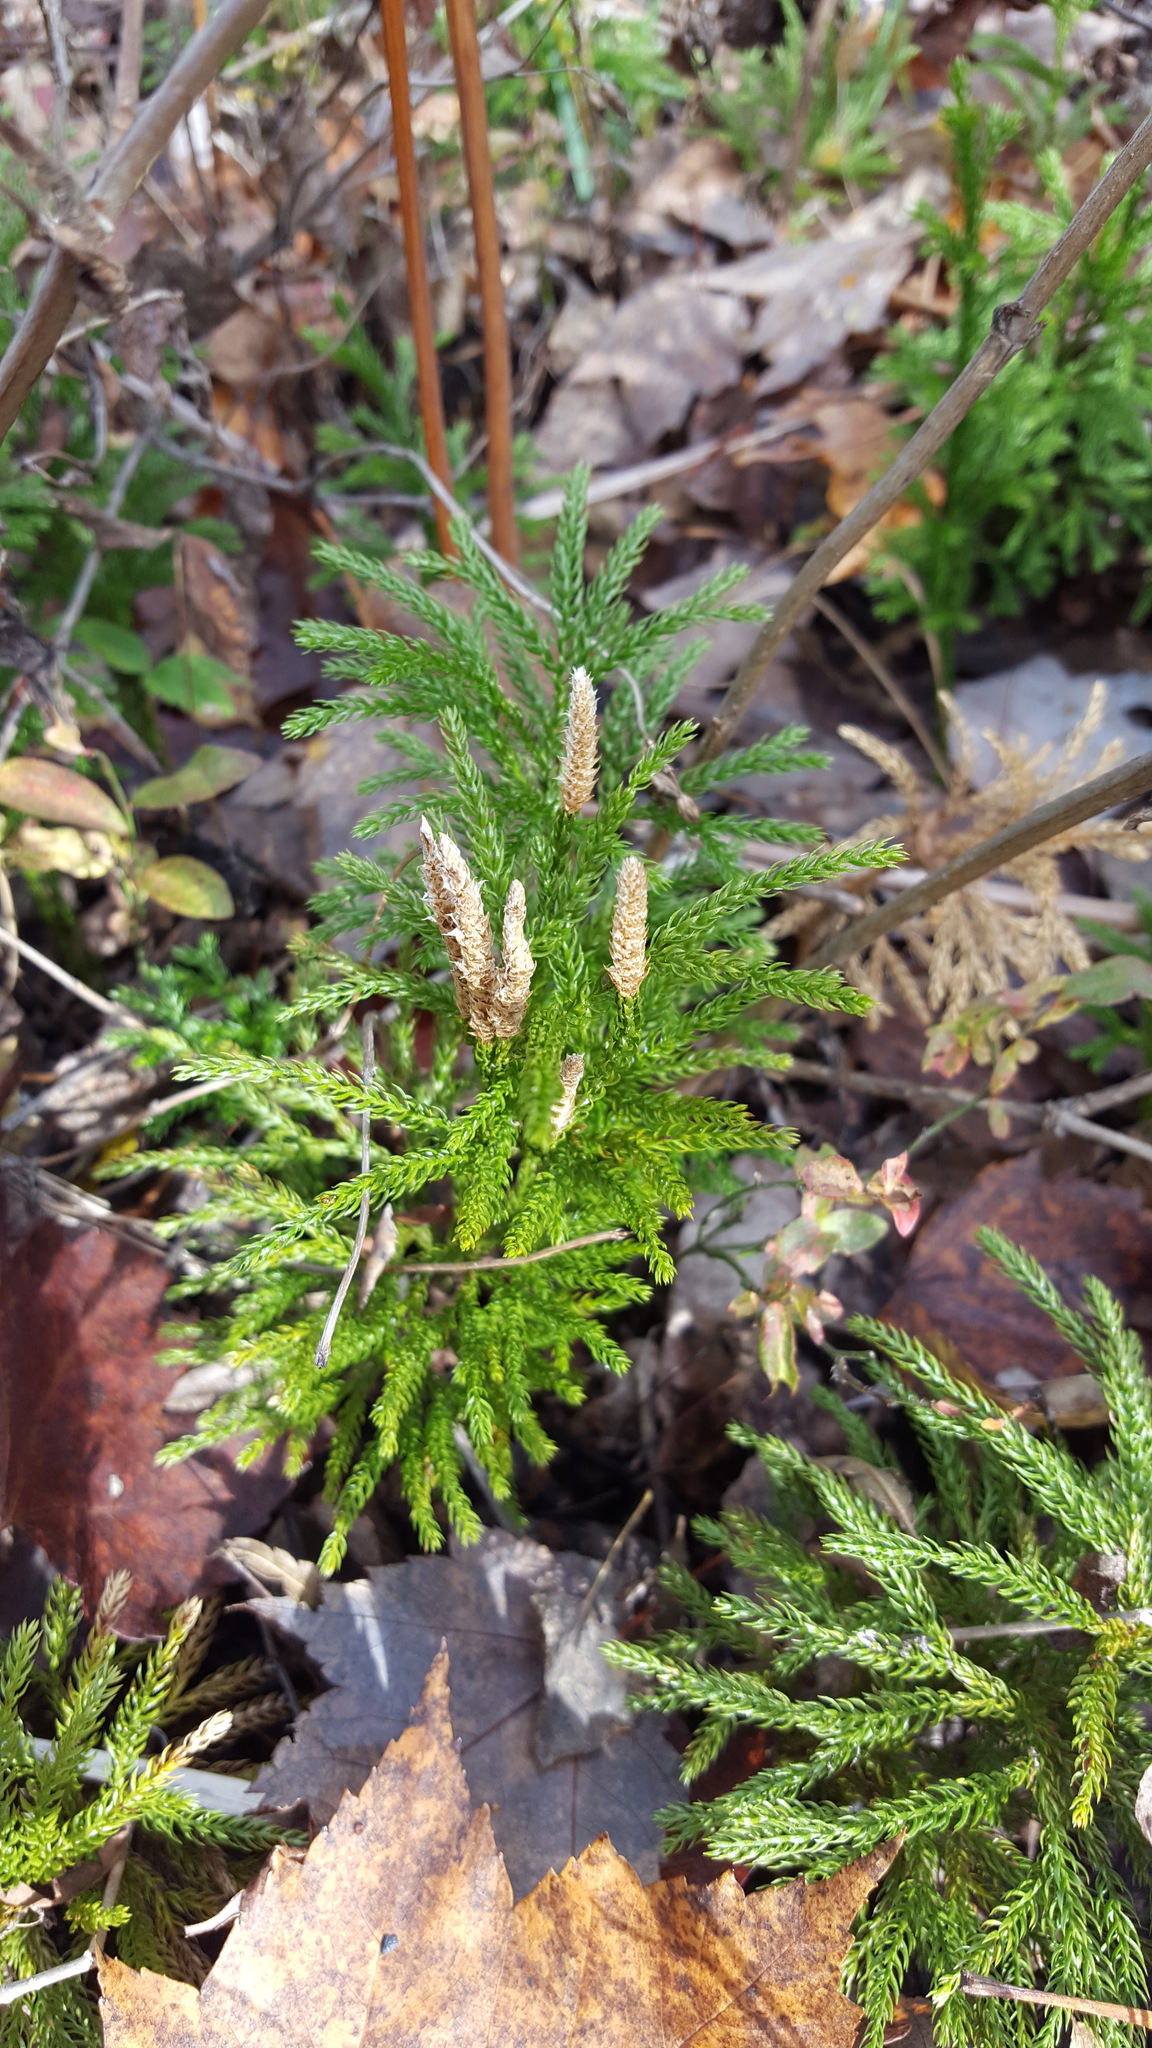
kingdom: Plantae
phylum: Tracheophyta
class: Lycopodiopsida
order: Lycopodiales
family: Lycopodiaceae
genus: Dendrolycopodium
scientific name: Dendrolycopodium hickeyi
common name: Hickey's clubmoss
